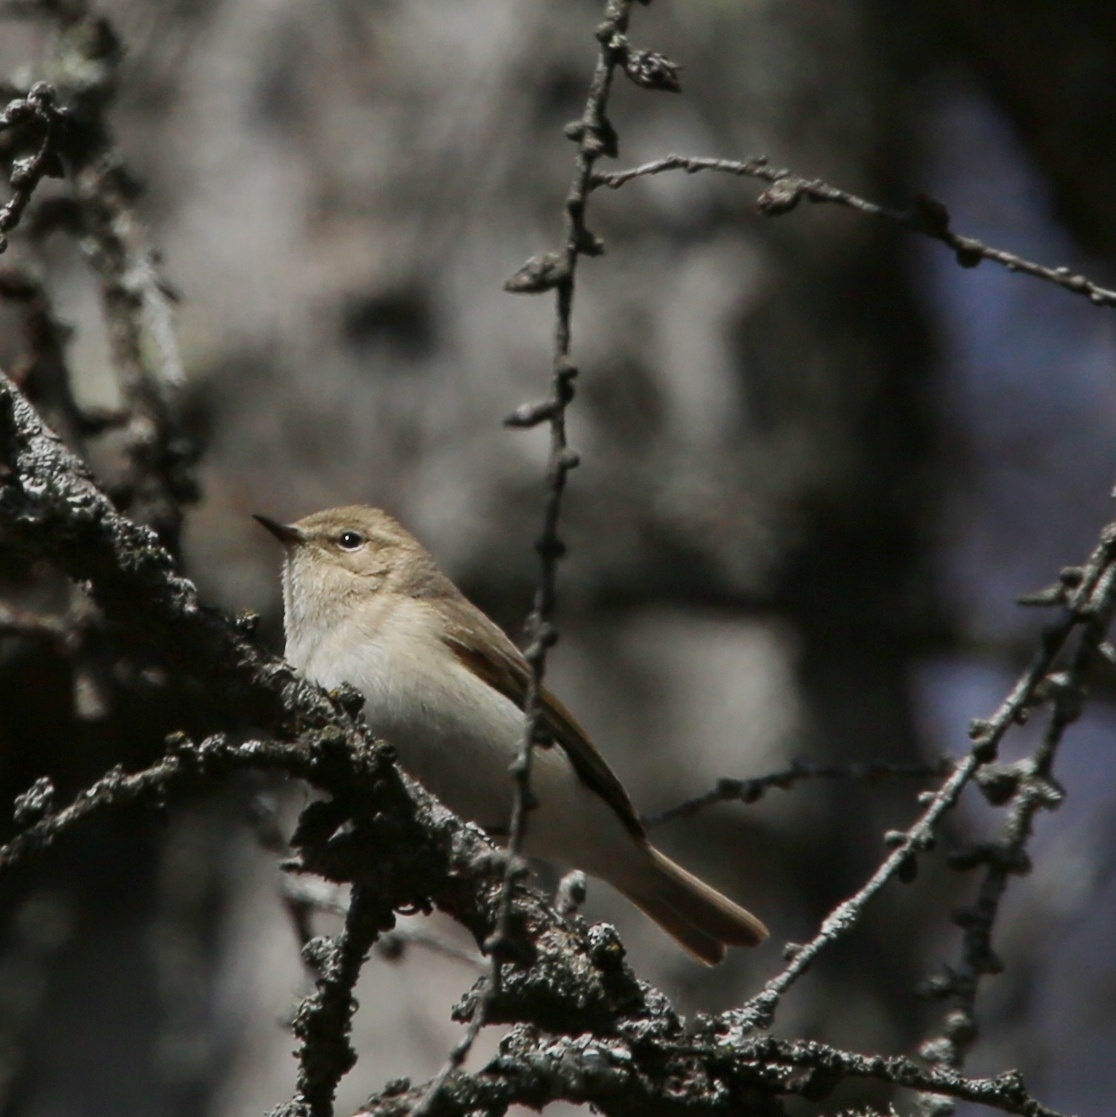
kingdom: Animalia
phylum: Chordata
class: Aves
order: Passeriformes
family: Phylloscopidae
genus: Phylloscopus
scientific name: Phylloscopus collybita
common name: Common chiffchaff
